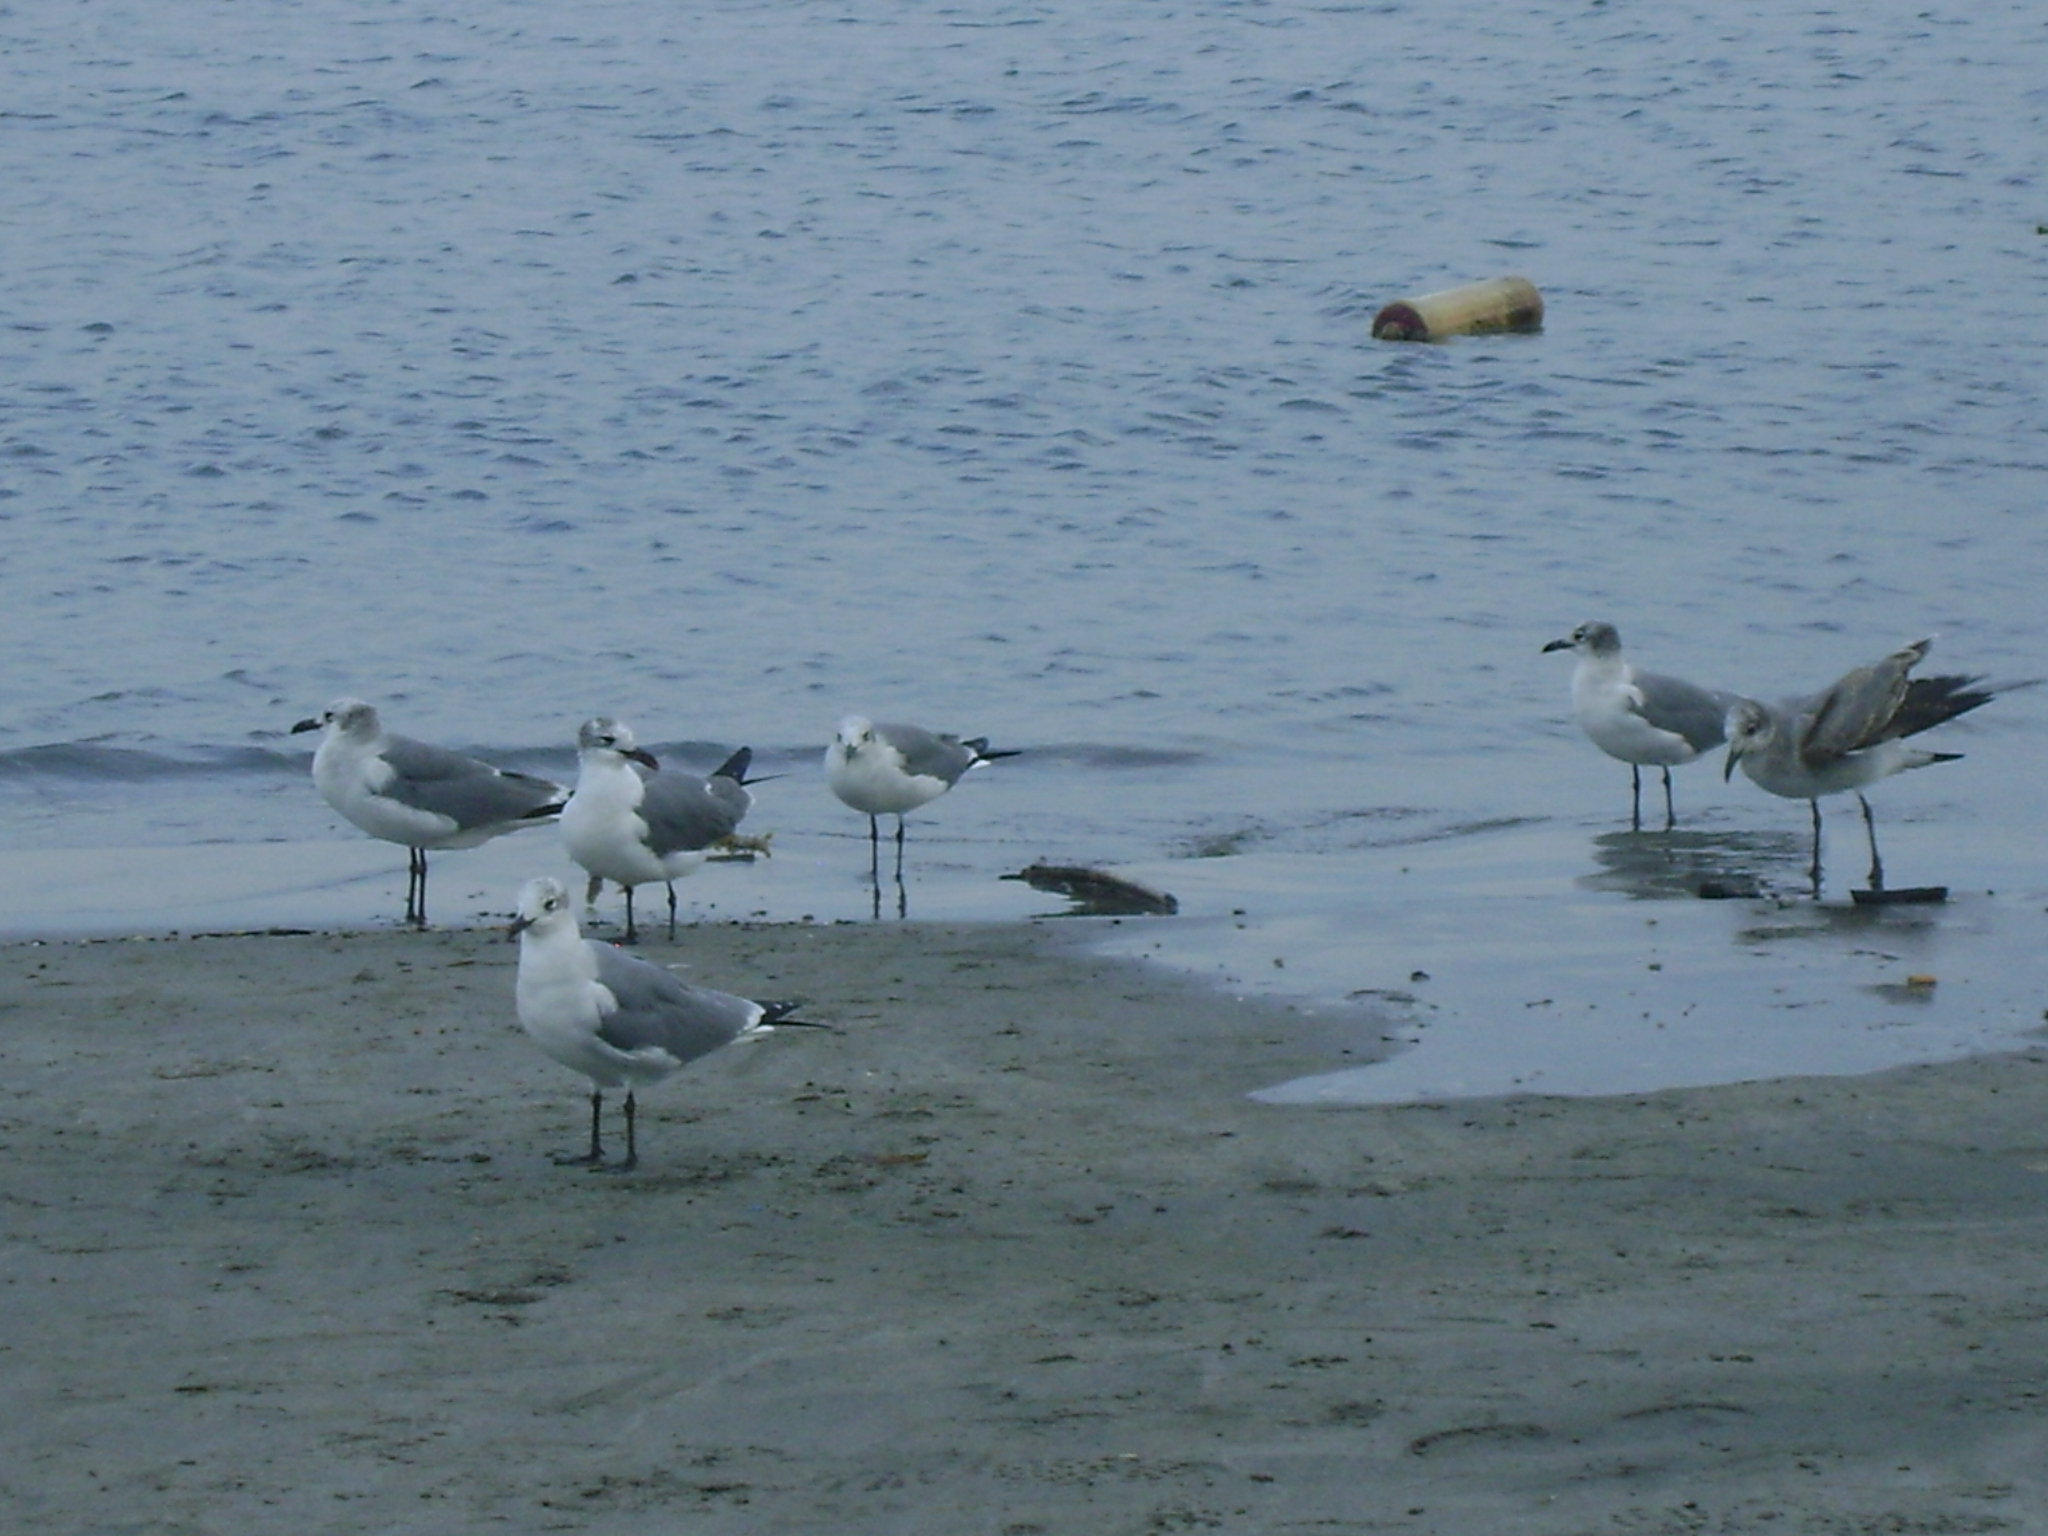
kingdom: Animalia
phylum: Chordata
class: Aves
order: Charadriiformes
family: Laridae
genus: Leucophaeus
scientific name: Leucophaeus atricilla
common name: Laughing gull
